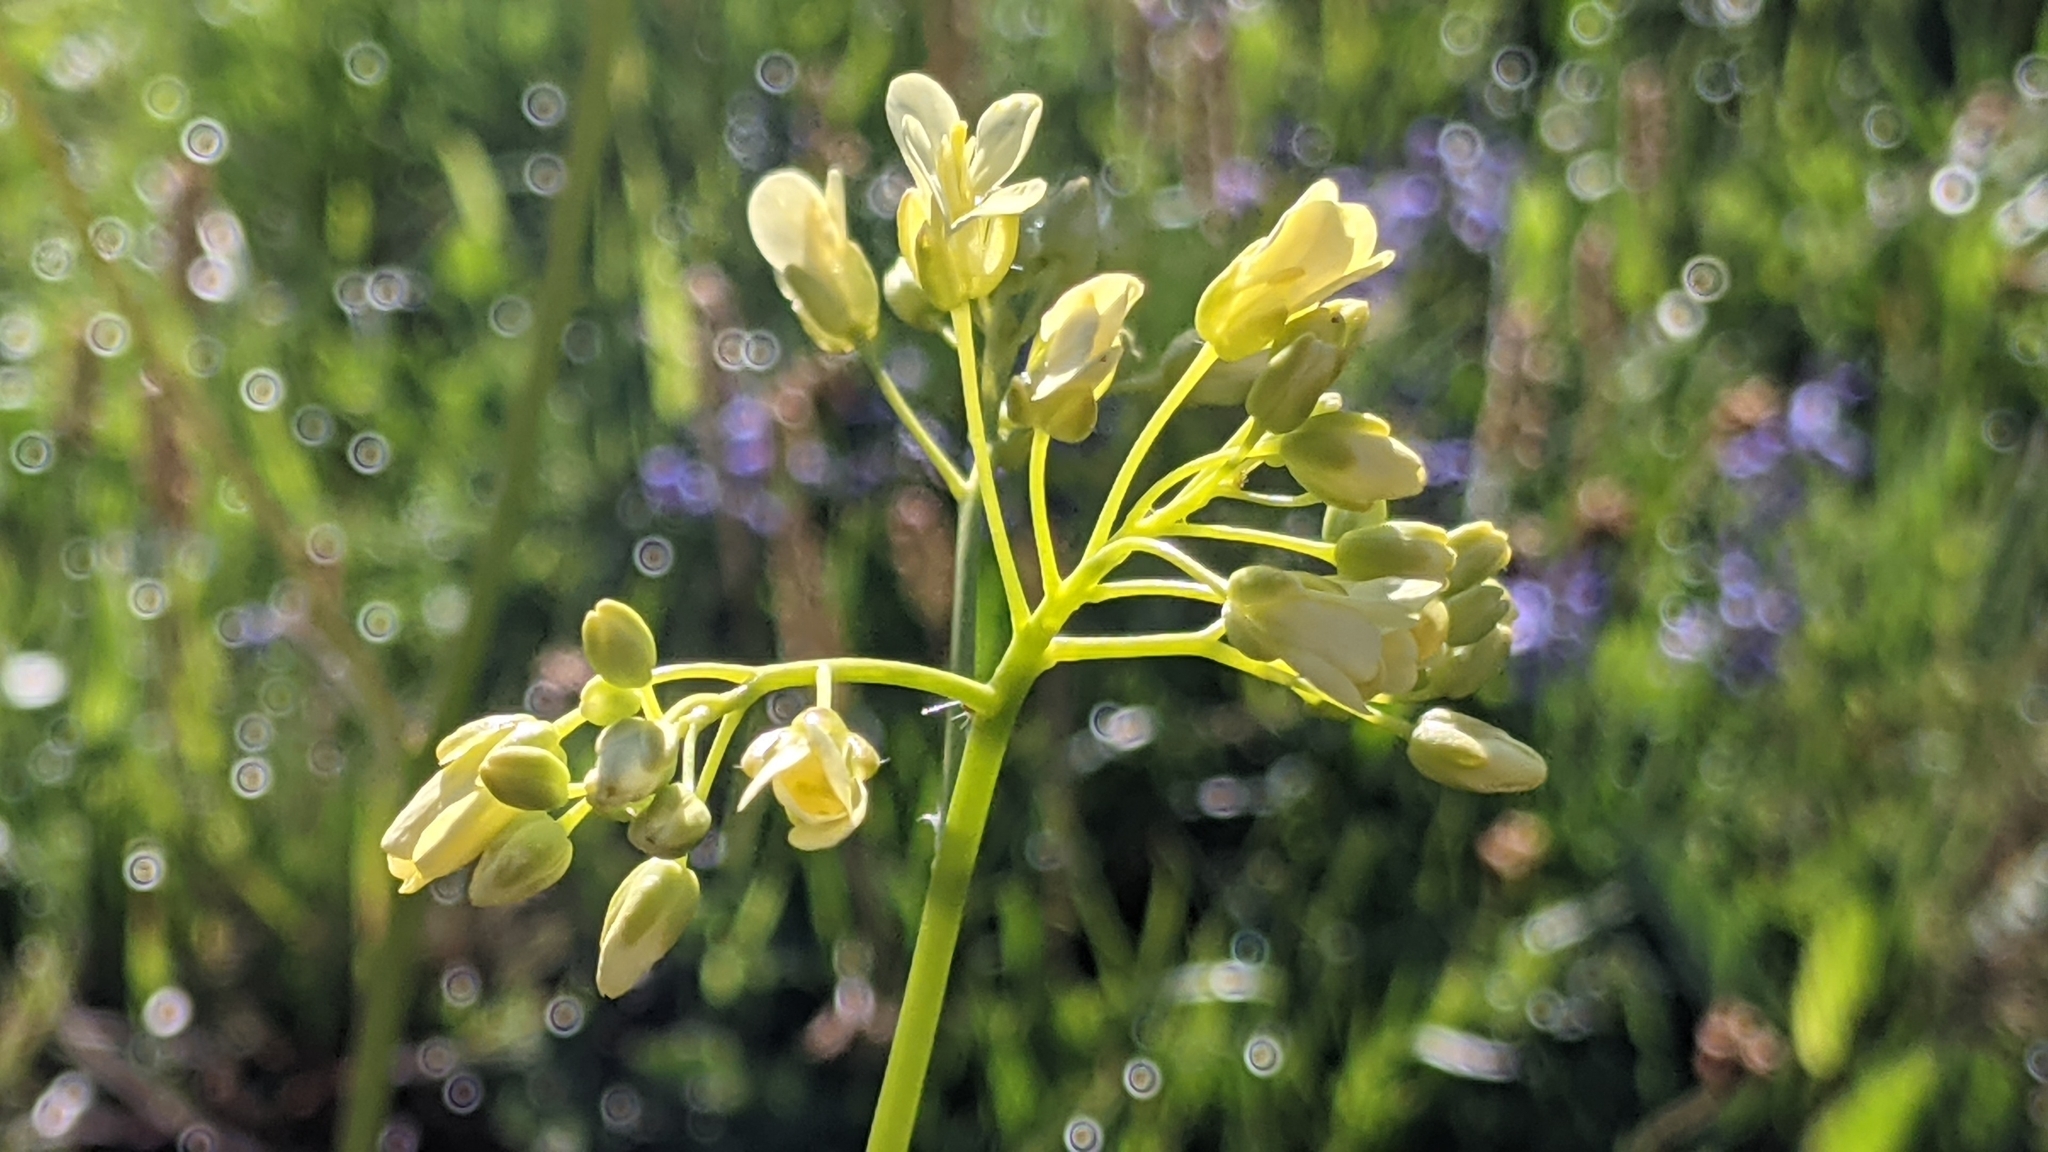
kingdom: Plantae
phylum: Tracheophyta
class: Magnoliopsida
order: Brassicales
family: Brassicaceae
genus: Biscutella
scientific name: Biscutella laevigata
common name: Buckler mustard
